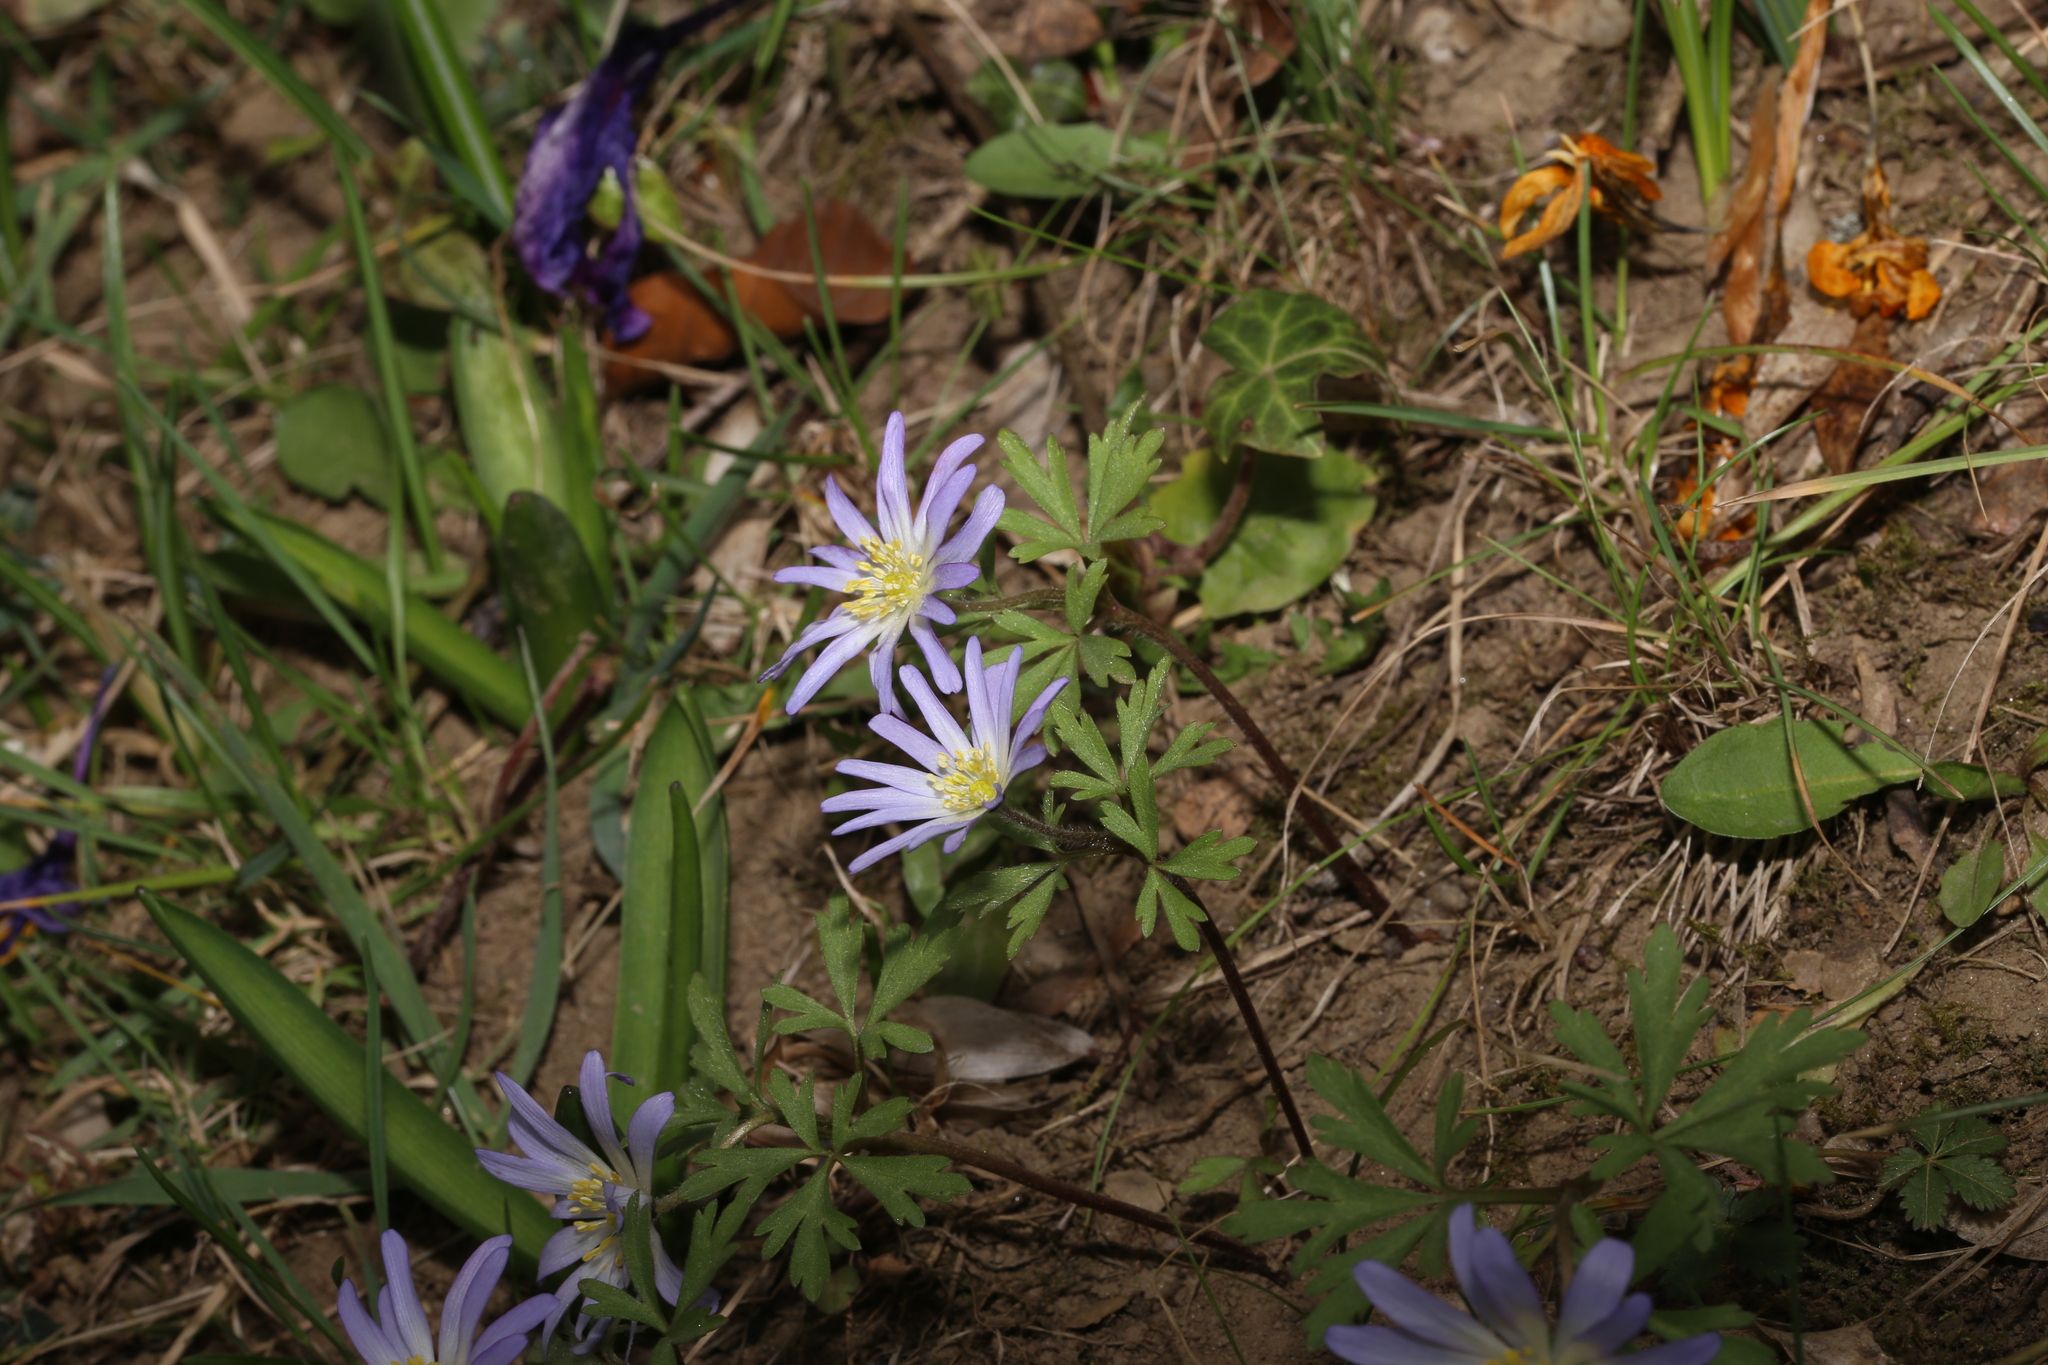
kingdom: Plantae
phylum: Tracheophyta
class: Magnoliopsida
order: Ranunculales
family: Ranunculaceae
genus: Anemone
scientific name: Anemone blanda
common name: Balkan anemone
